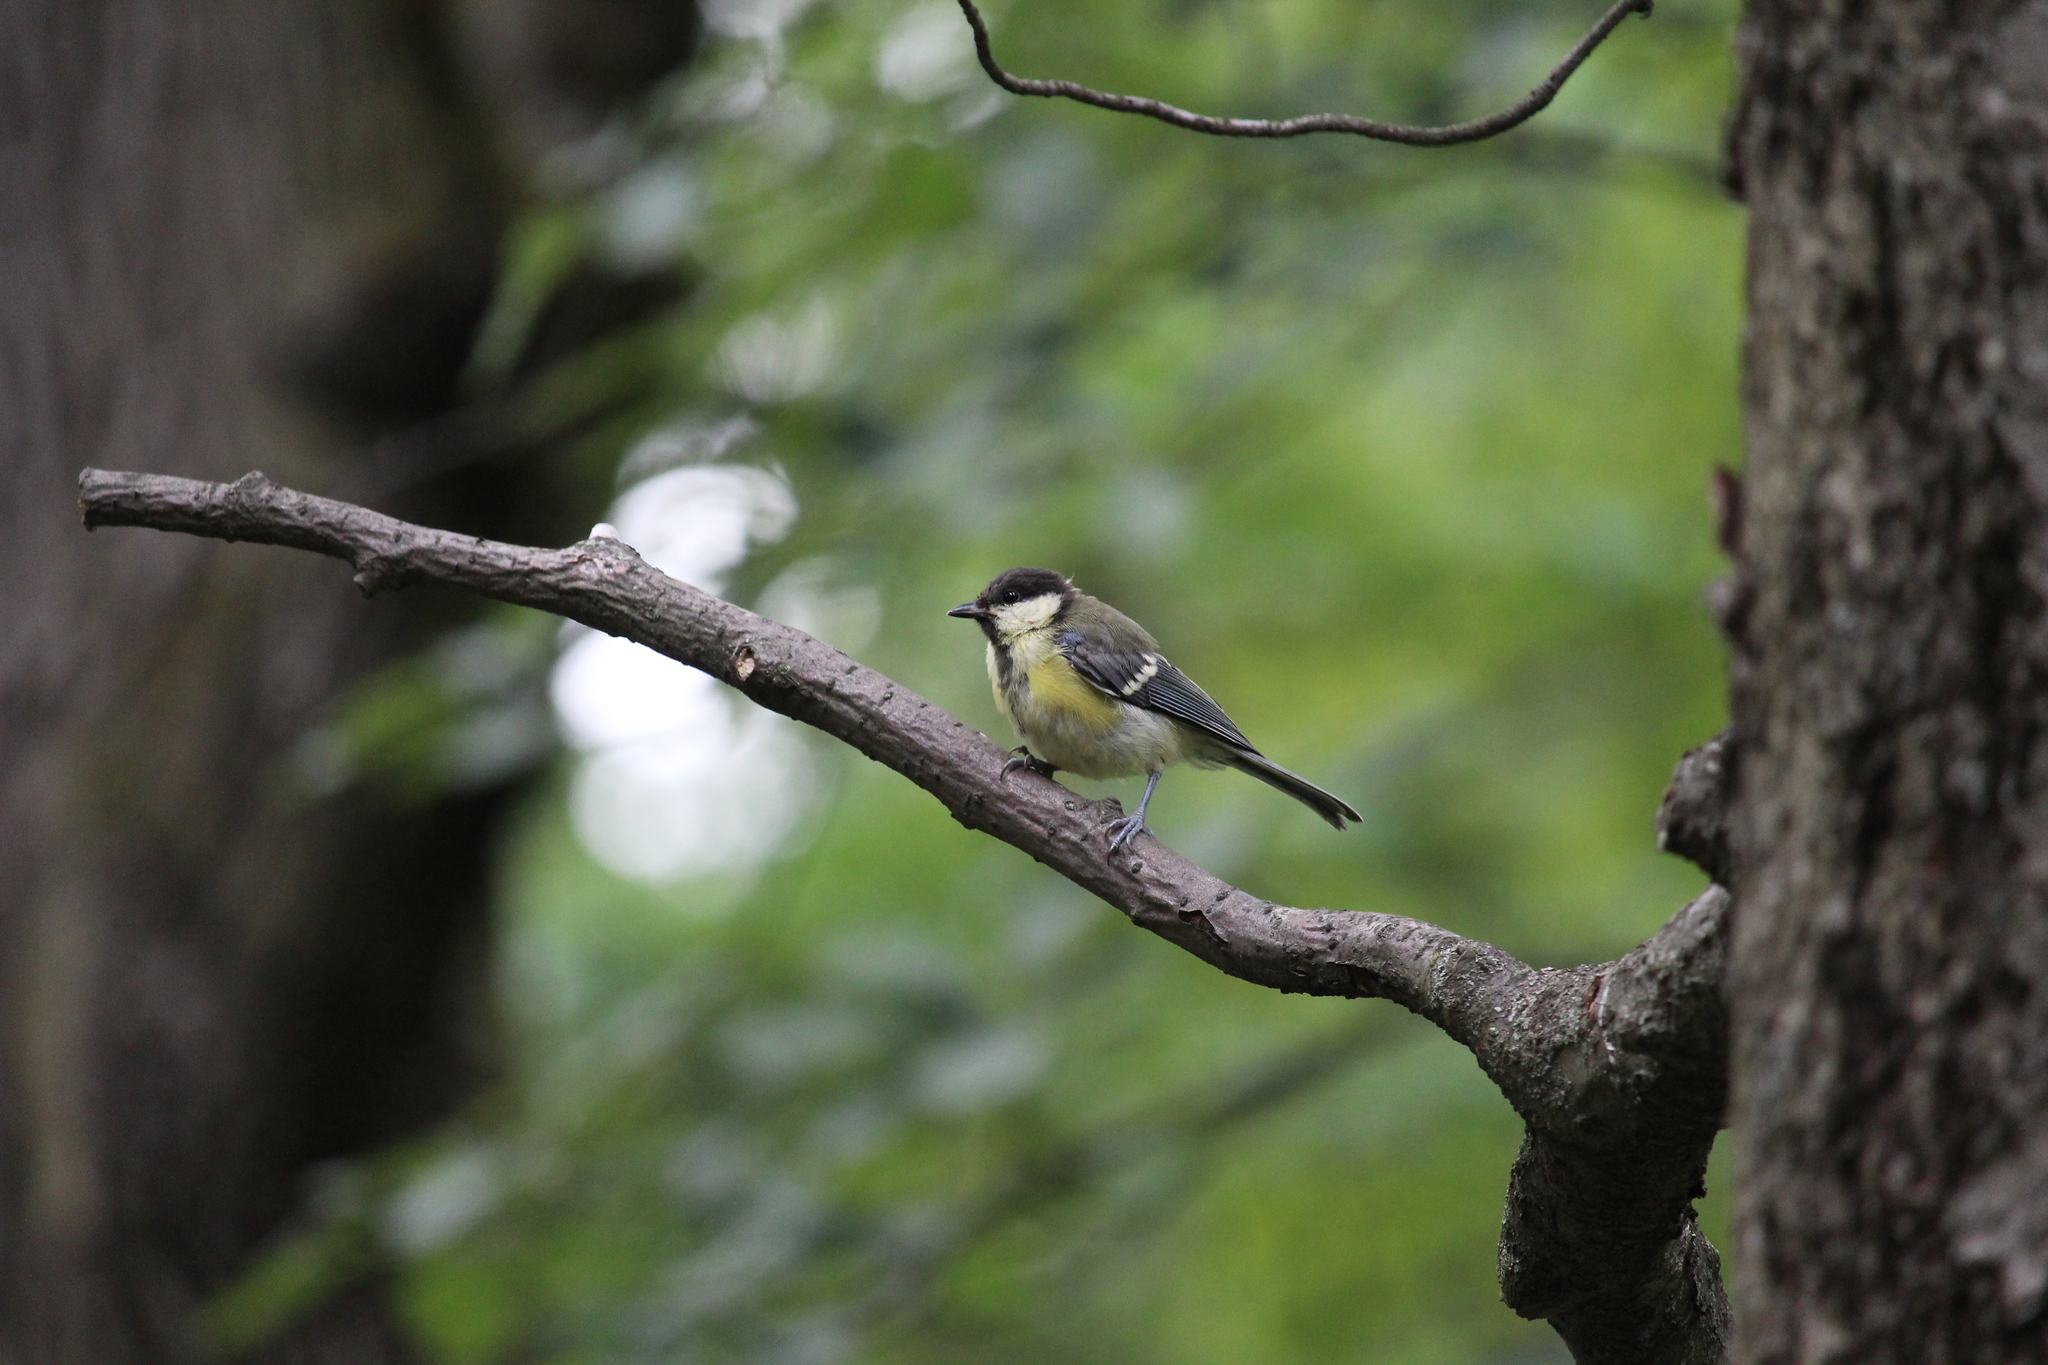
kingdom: Animalia
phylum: Chordata
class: Aves
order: Passeriformes
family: Paridae
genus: Parus
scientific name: Parus major
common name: Great tit
